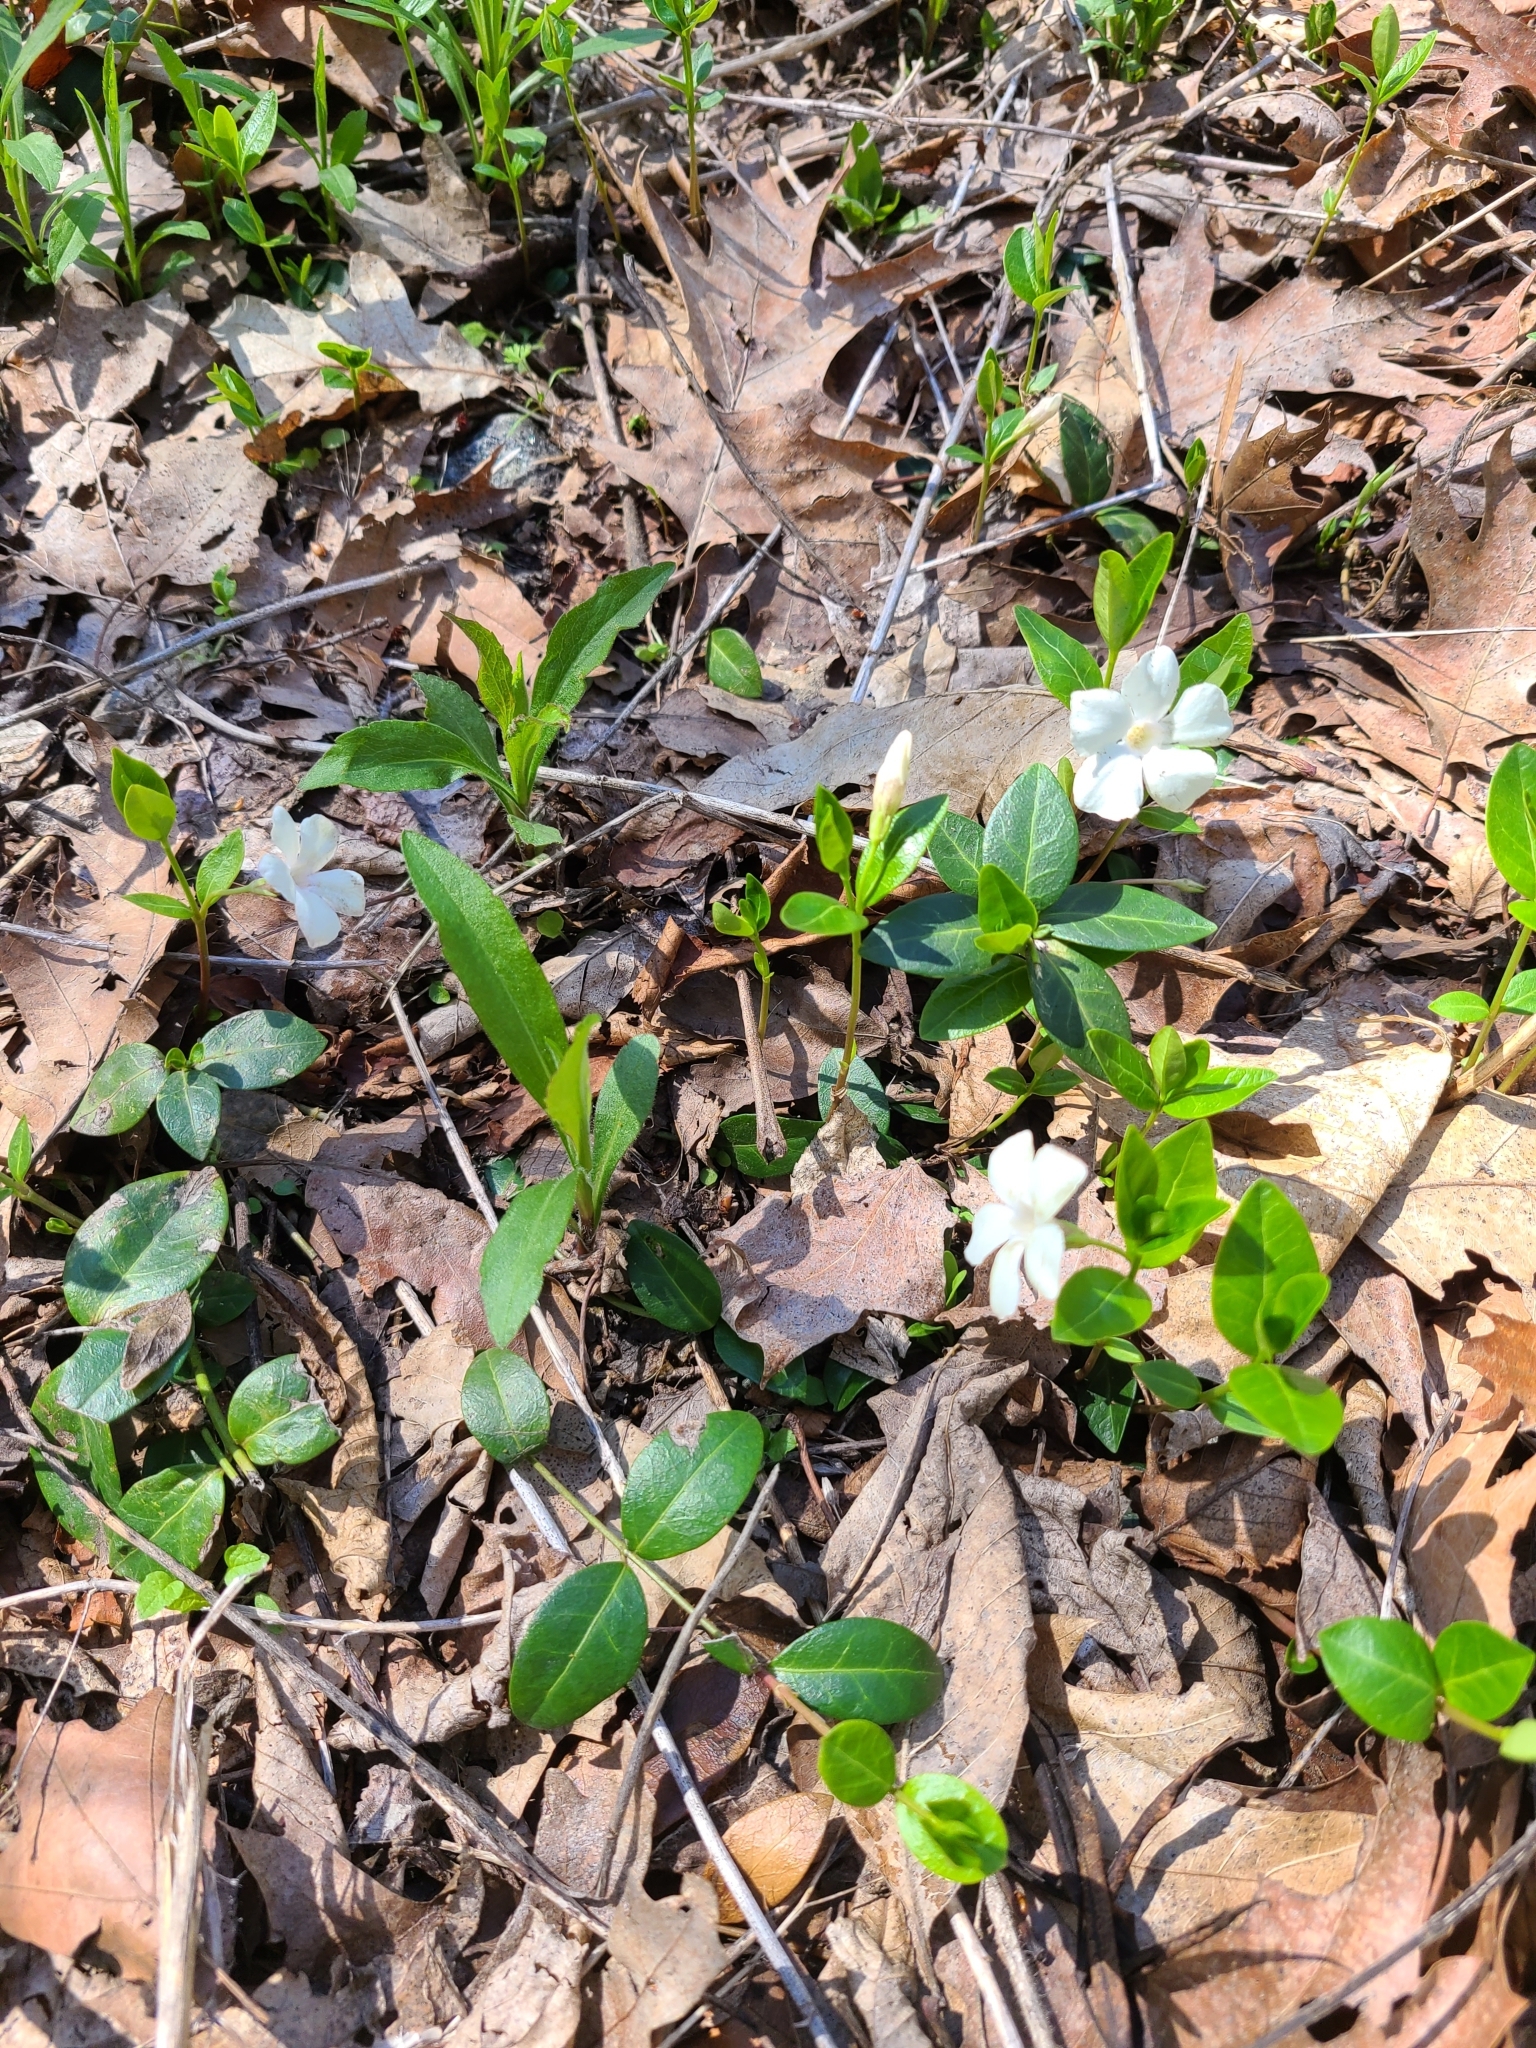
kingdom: Plantae
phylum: Tracheophyta
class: Magnoliopsida
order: Gentianales
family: Apocynaceae
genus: Vinca
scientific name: Vinca minor
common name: Lesser periwinkle
